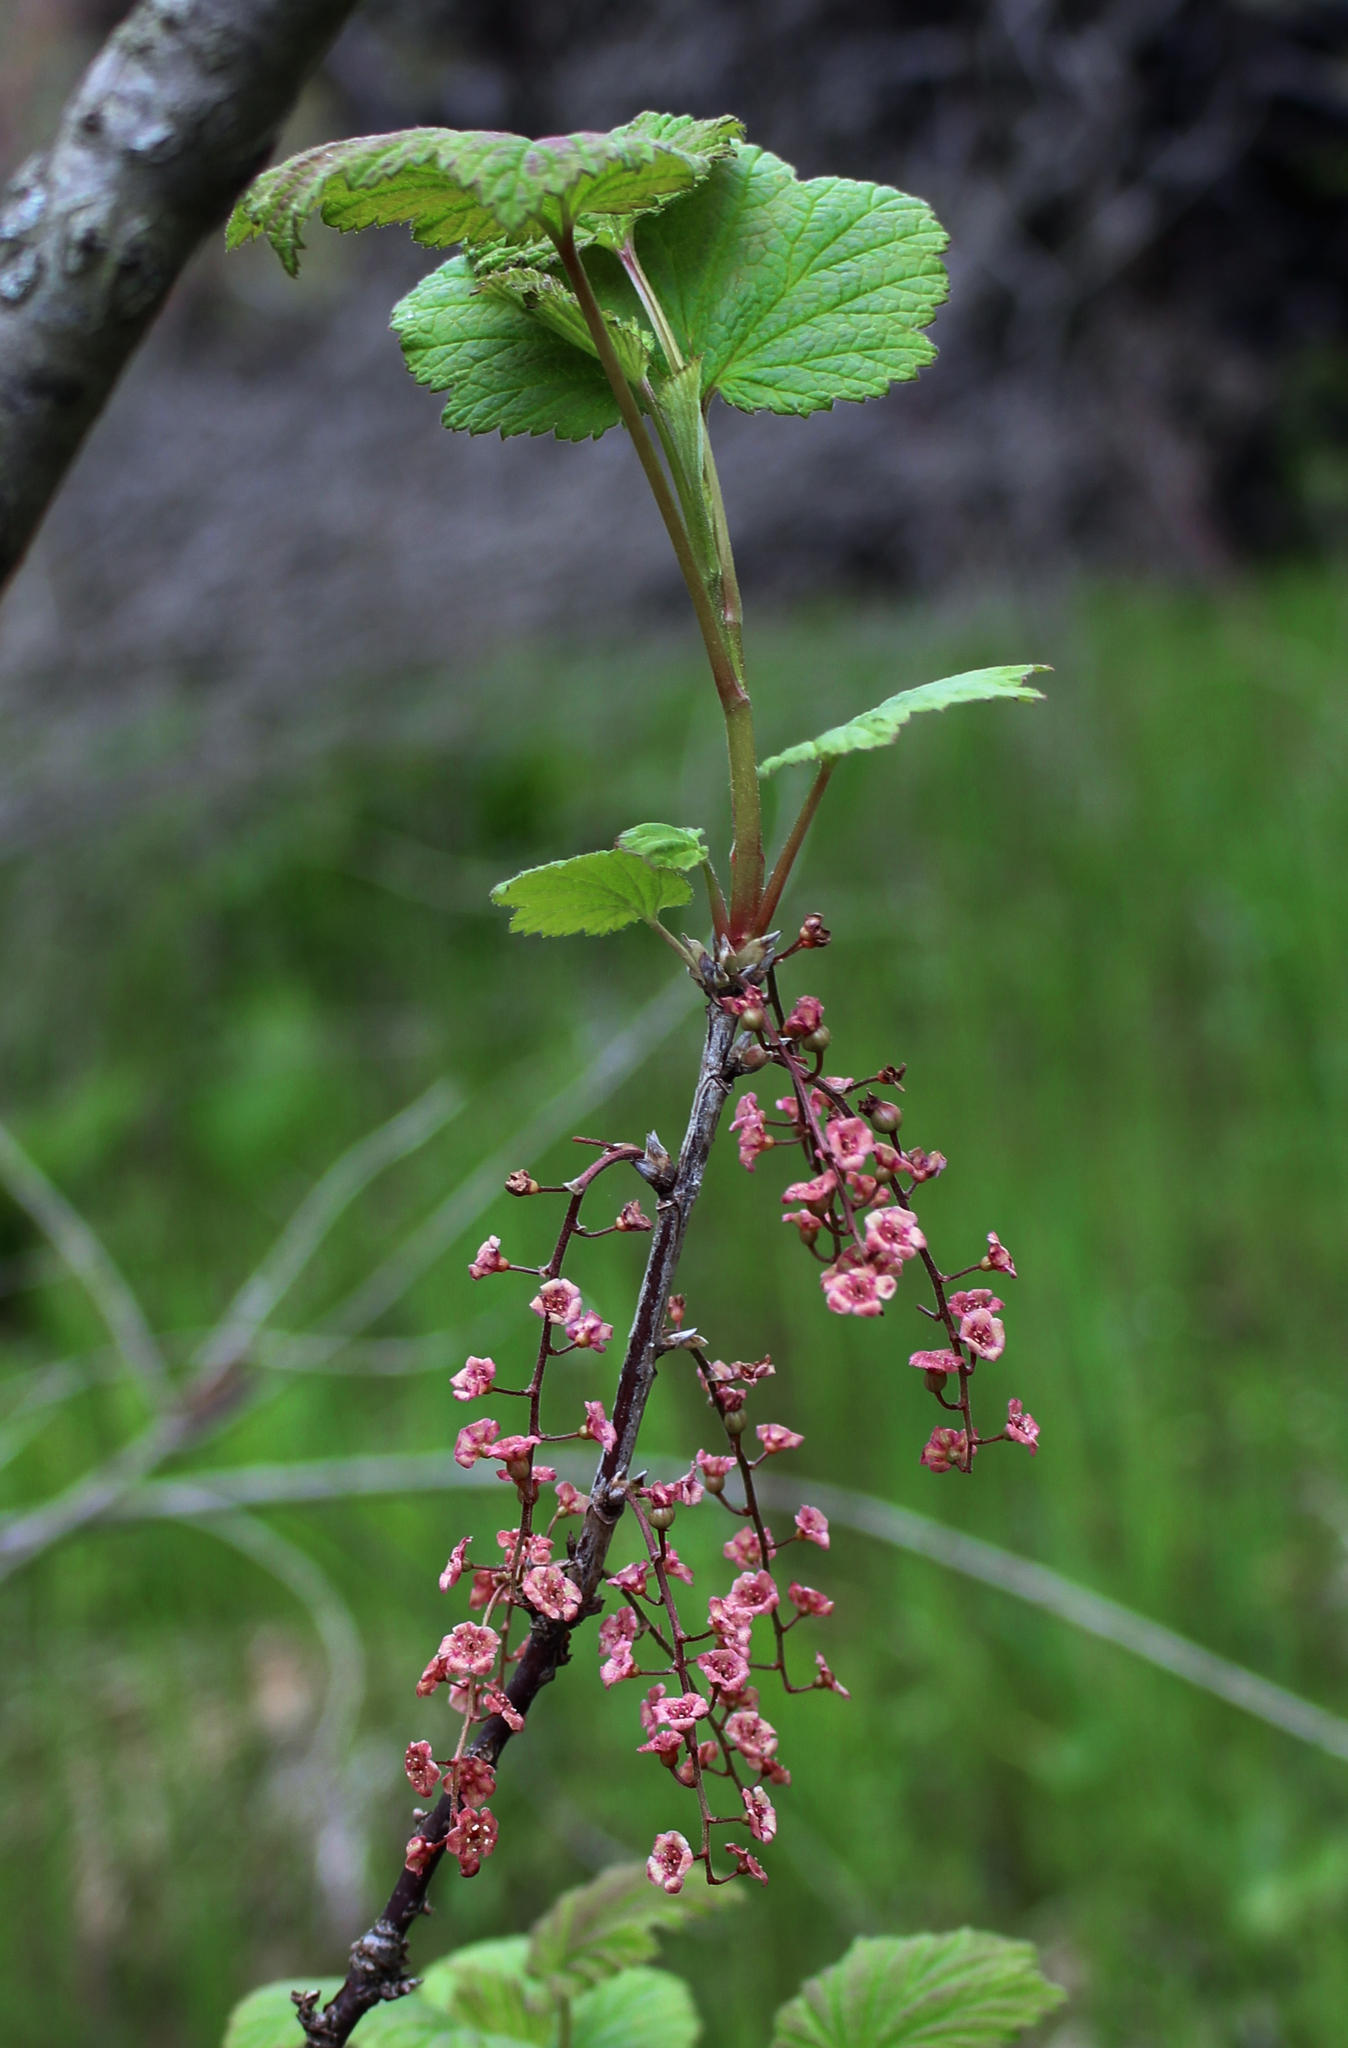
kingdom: Plantae
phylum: Tracheophyta
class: Magnoliopsida
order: Saxifragales
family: Grossulariaceae
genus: Ribes
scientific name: Ribes triste
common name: Swamp red currant
